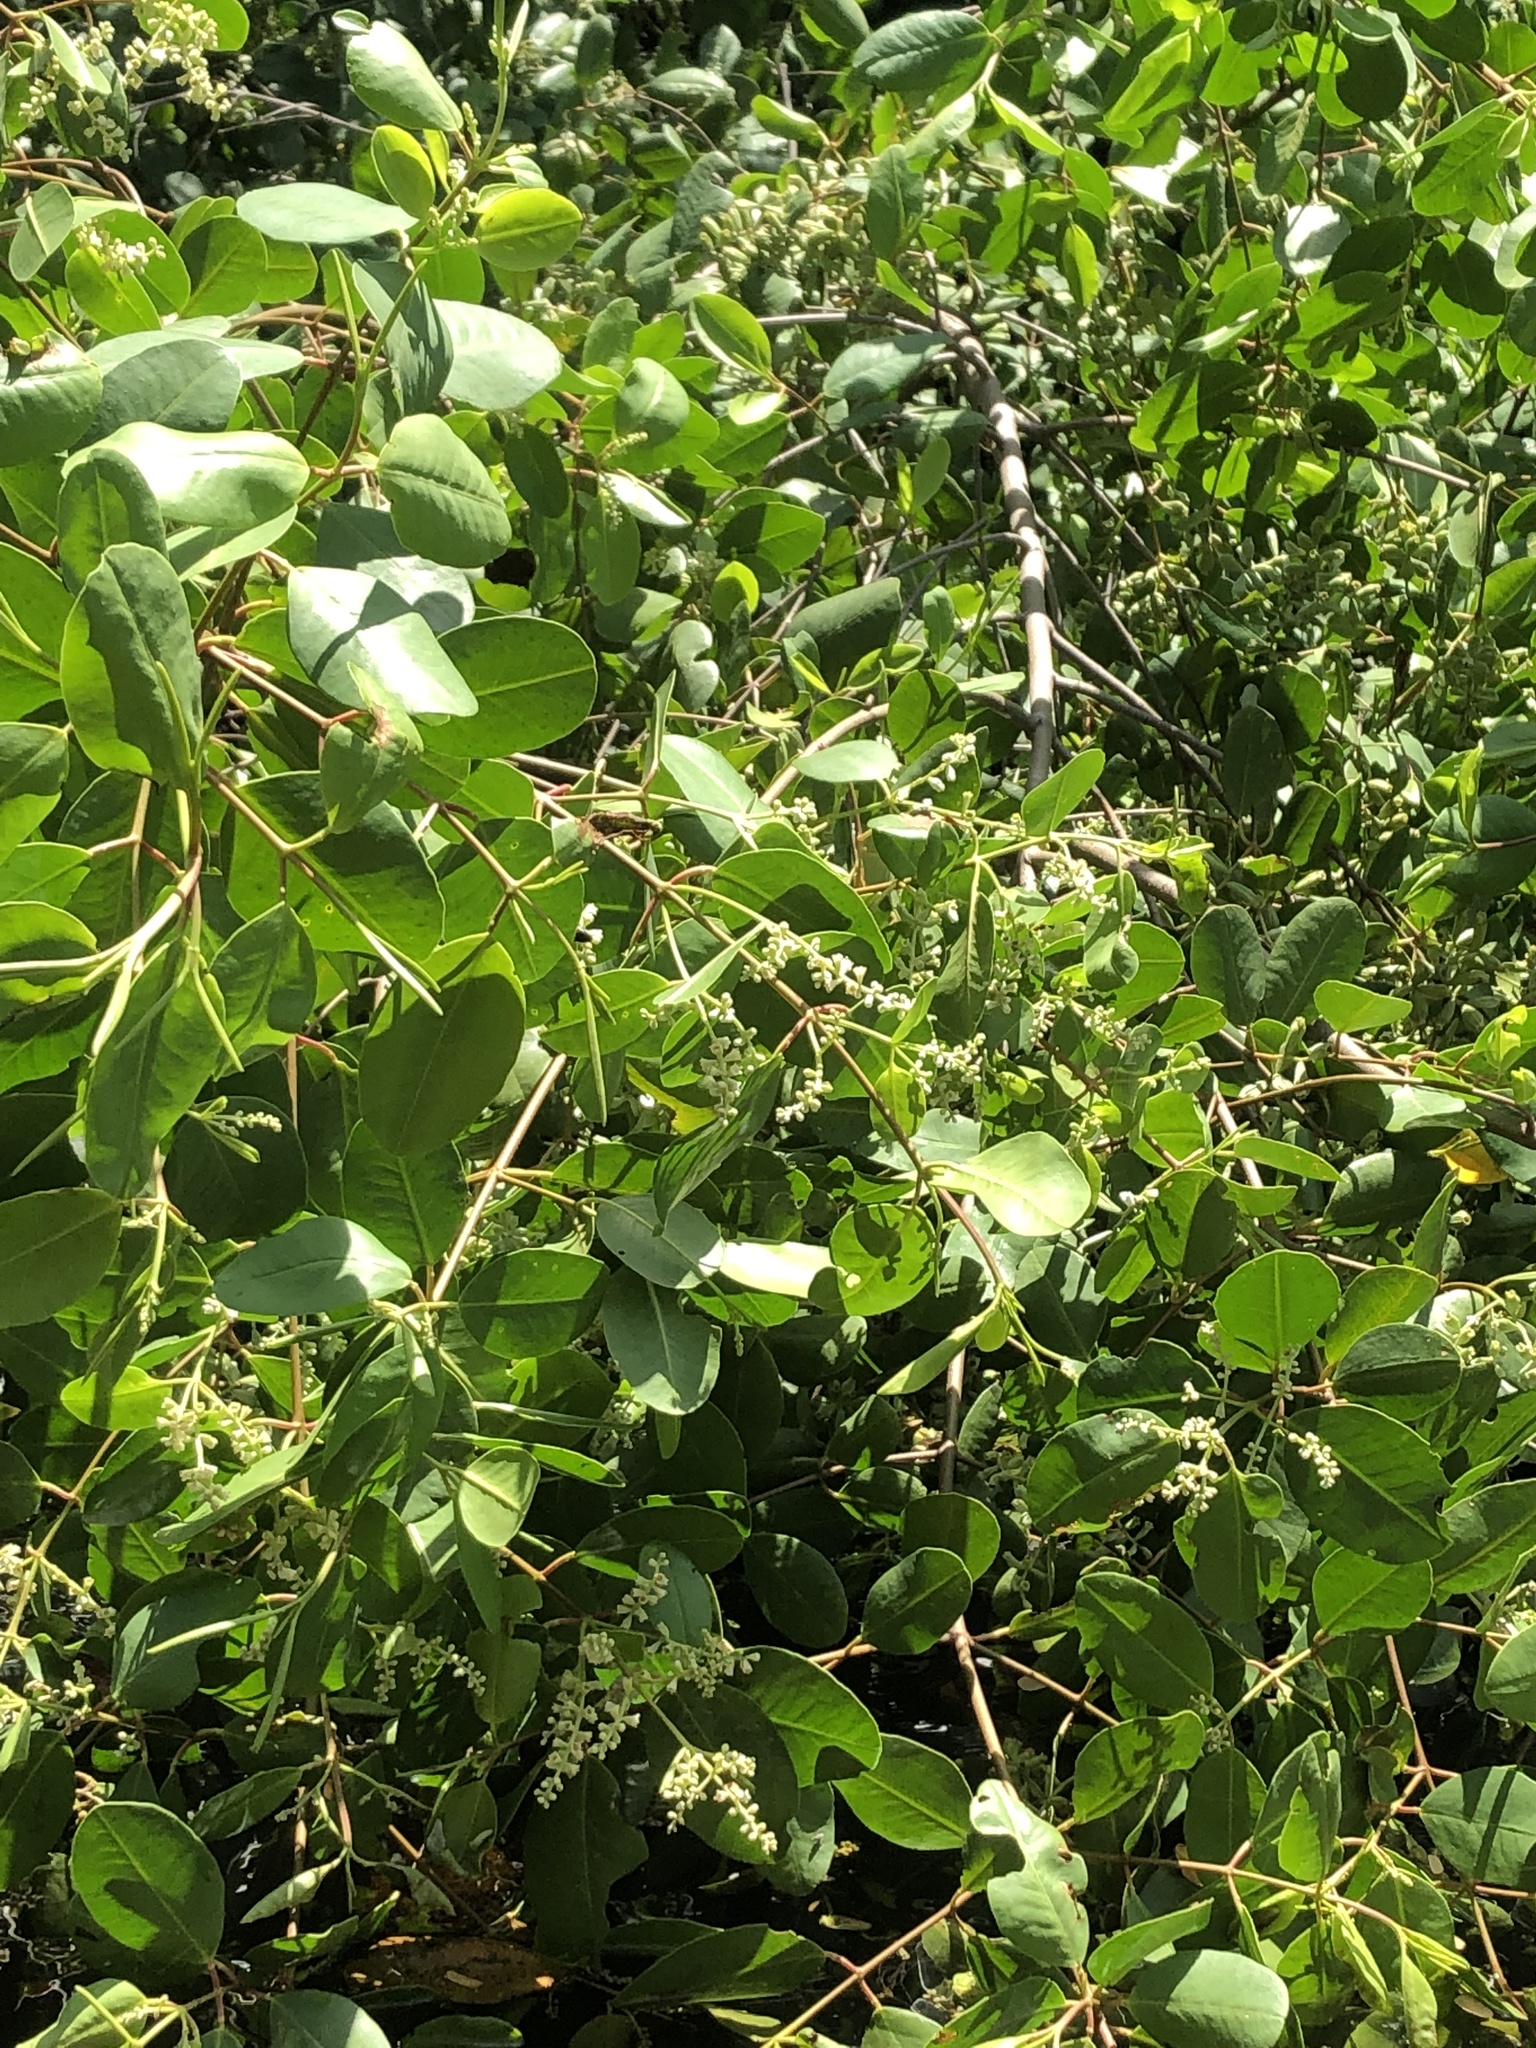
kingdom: Plantae
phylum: Tracheophyta
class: Magnoliopsida
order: Myrtales
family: Combretaceae
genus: Laguncularia
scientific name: Laguncularia racemosa
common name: White mangrove
